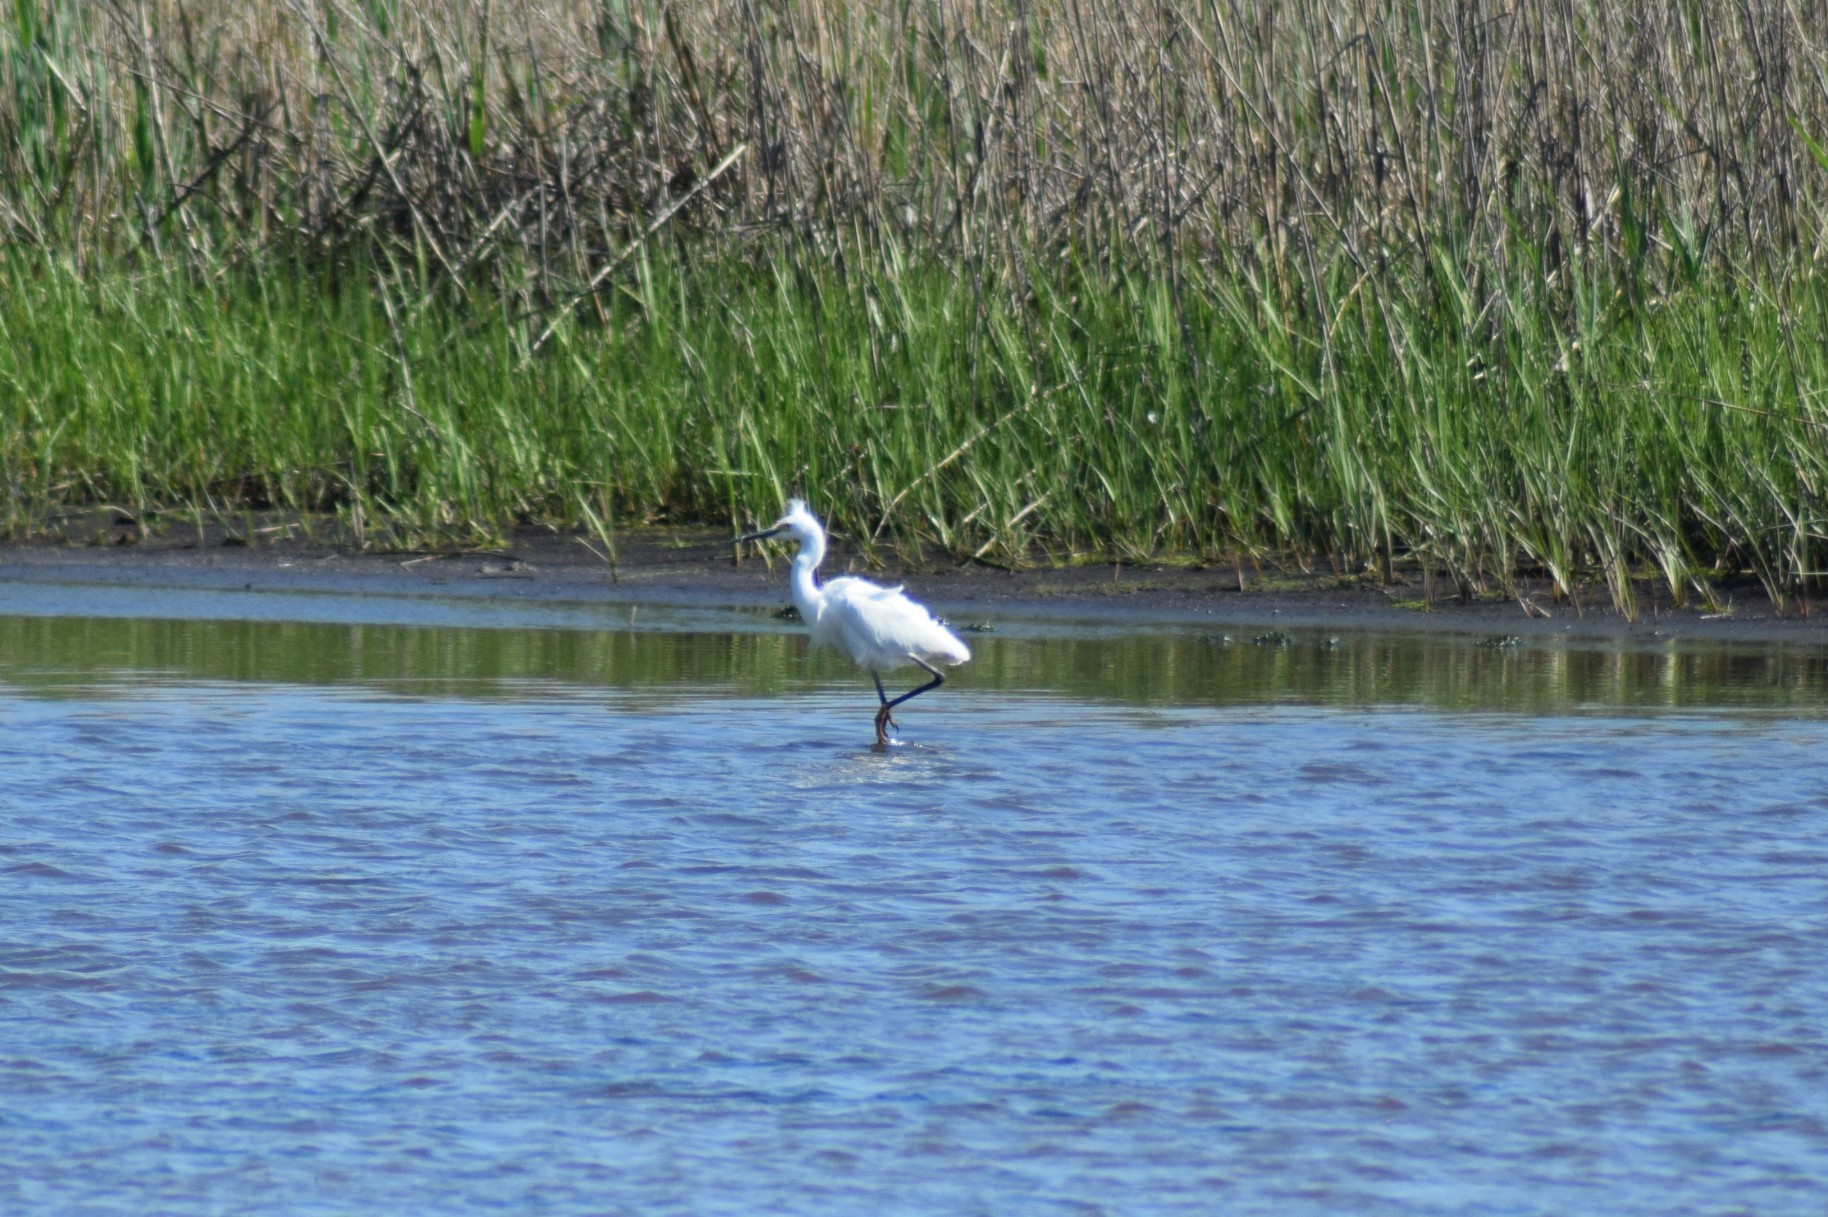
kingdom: Animalia
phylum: Chordata
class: Aves
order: Pelecaniformes
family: Ardeidae
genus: Egretta
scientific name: Egretta thula
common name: Snowy egret
